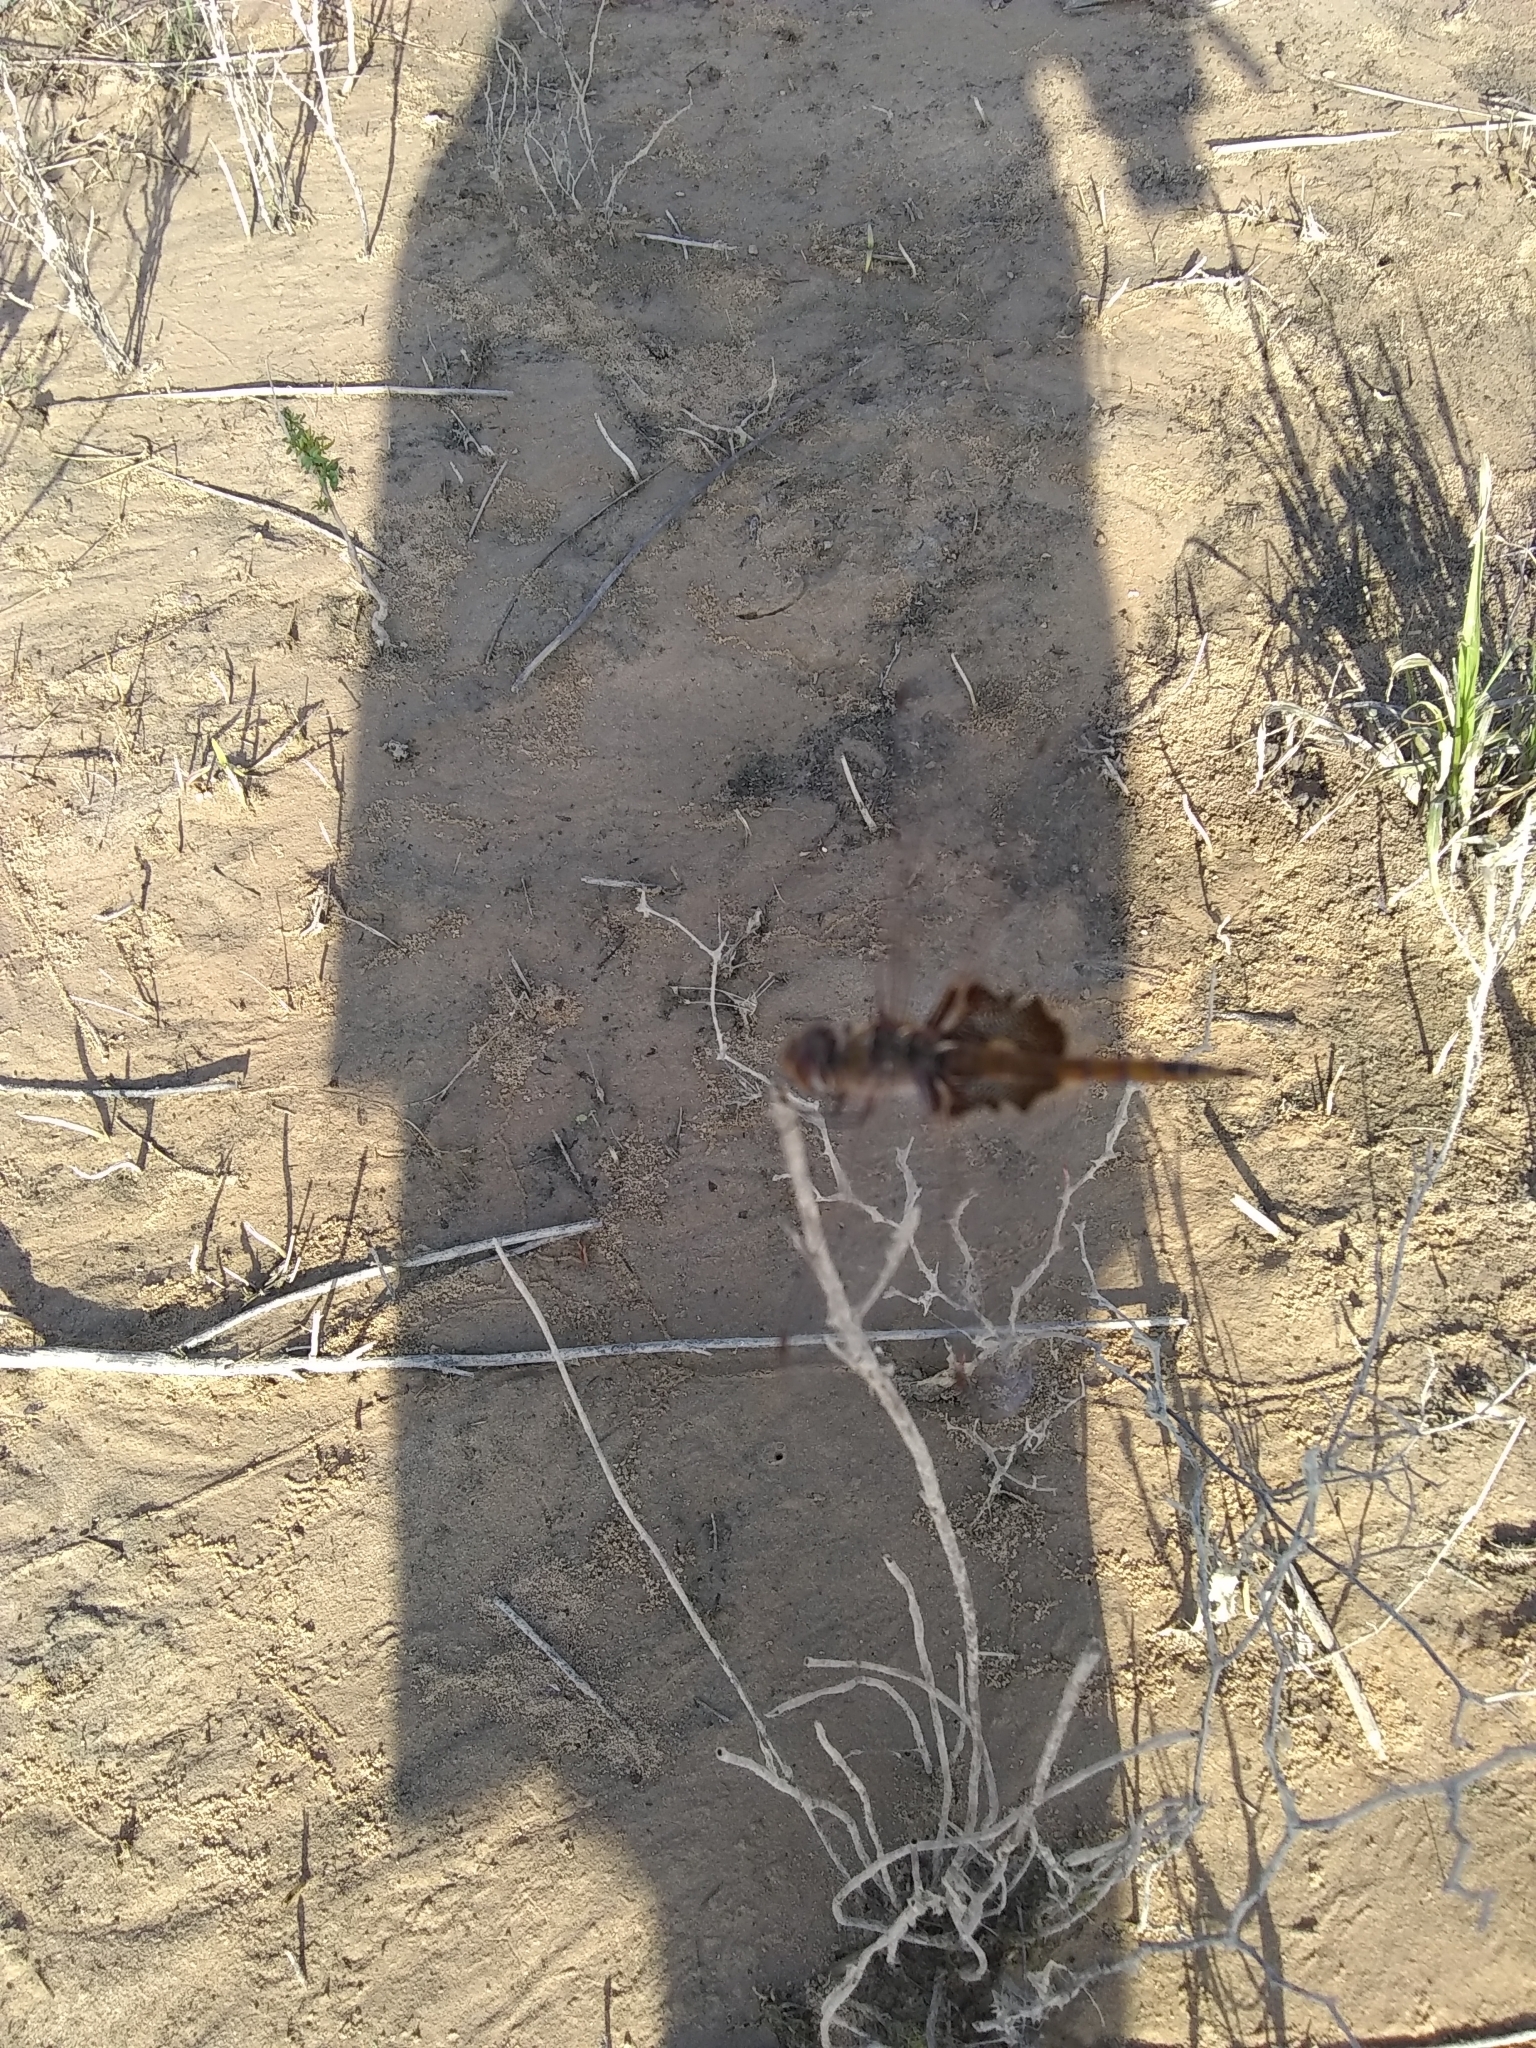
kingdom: Animalia
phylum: Arthropoda
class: Insecta
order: Odonata
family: Libellulidae
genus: Tramea
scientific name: Tramea onusta
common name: Red saddlebags
